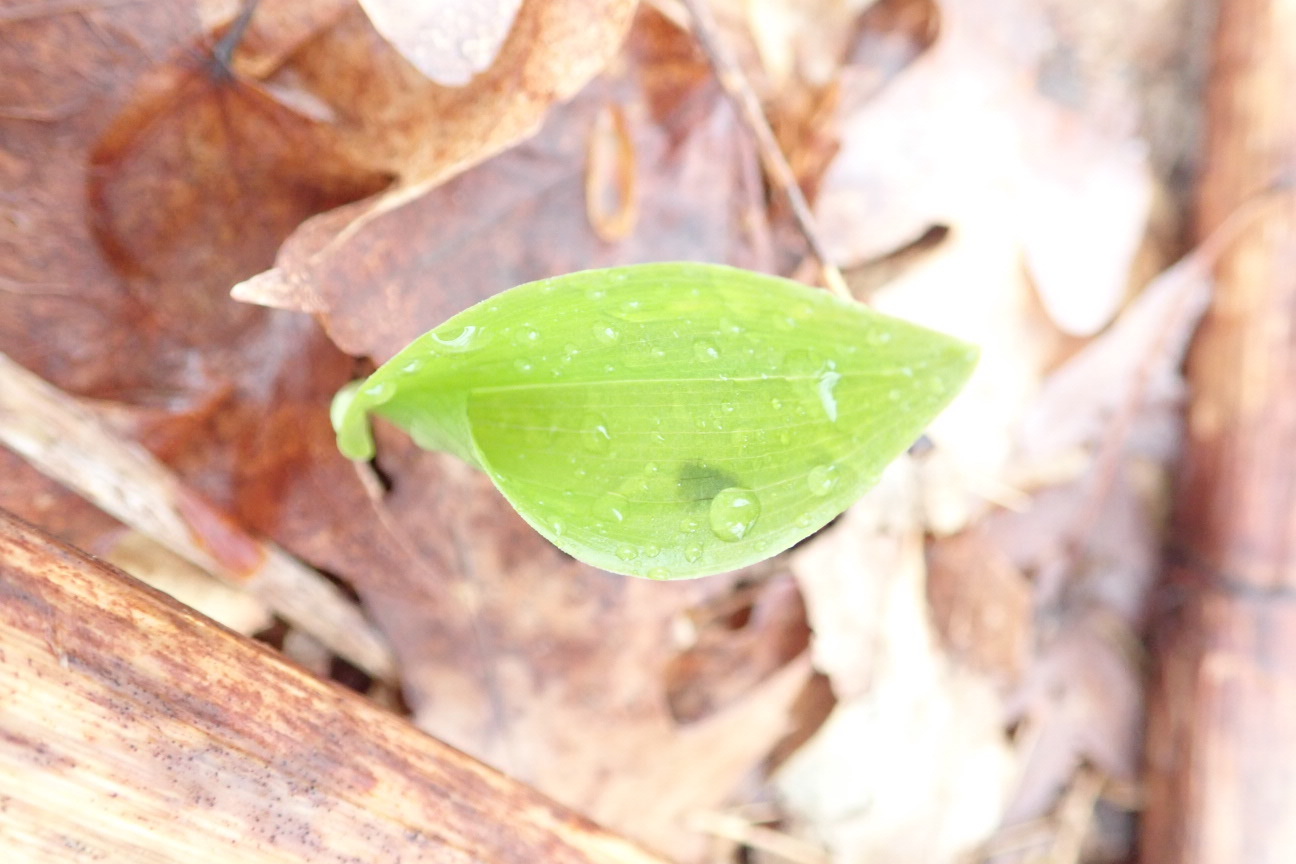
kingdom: Plantae
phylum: Tracheophyta
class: Liliopsida
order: Asparagales
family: Asparagaceae
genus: Maianthemum
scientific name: Maianthemum canadense
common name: False lily-of-the-valley
